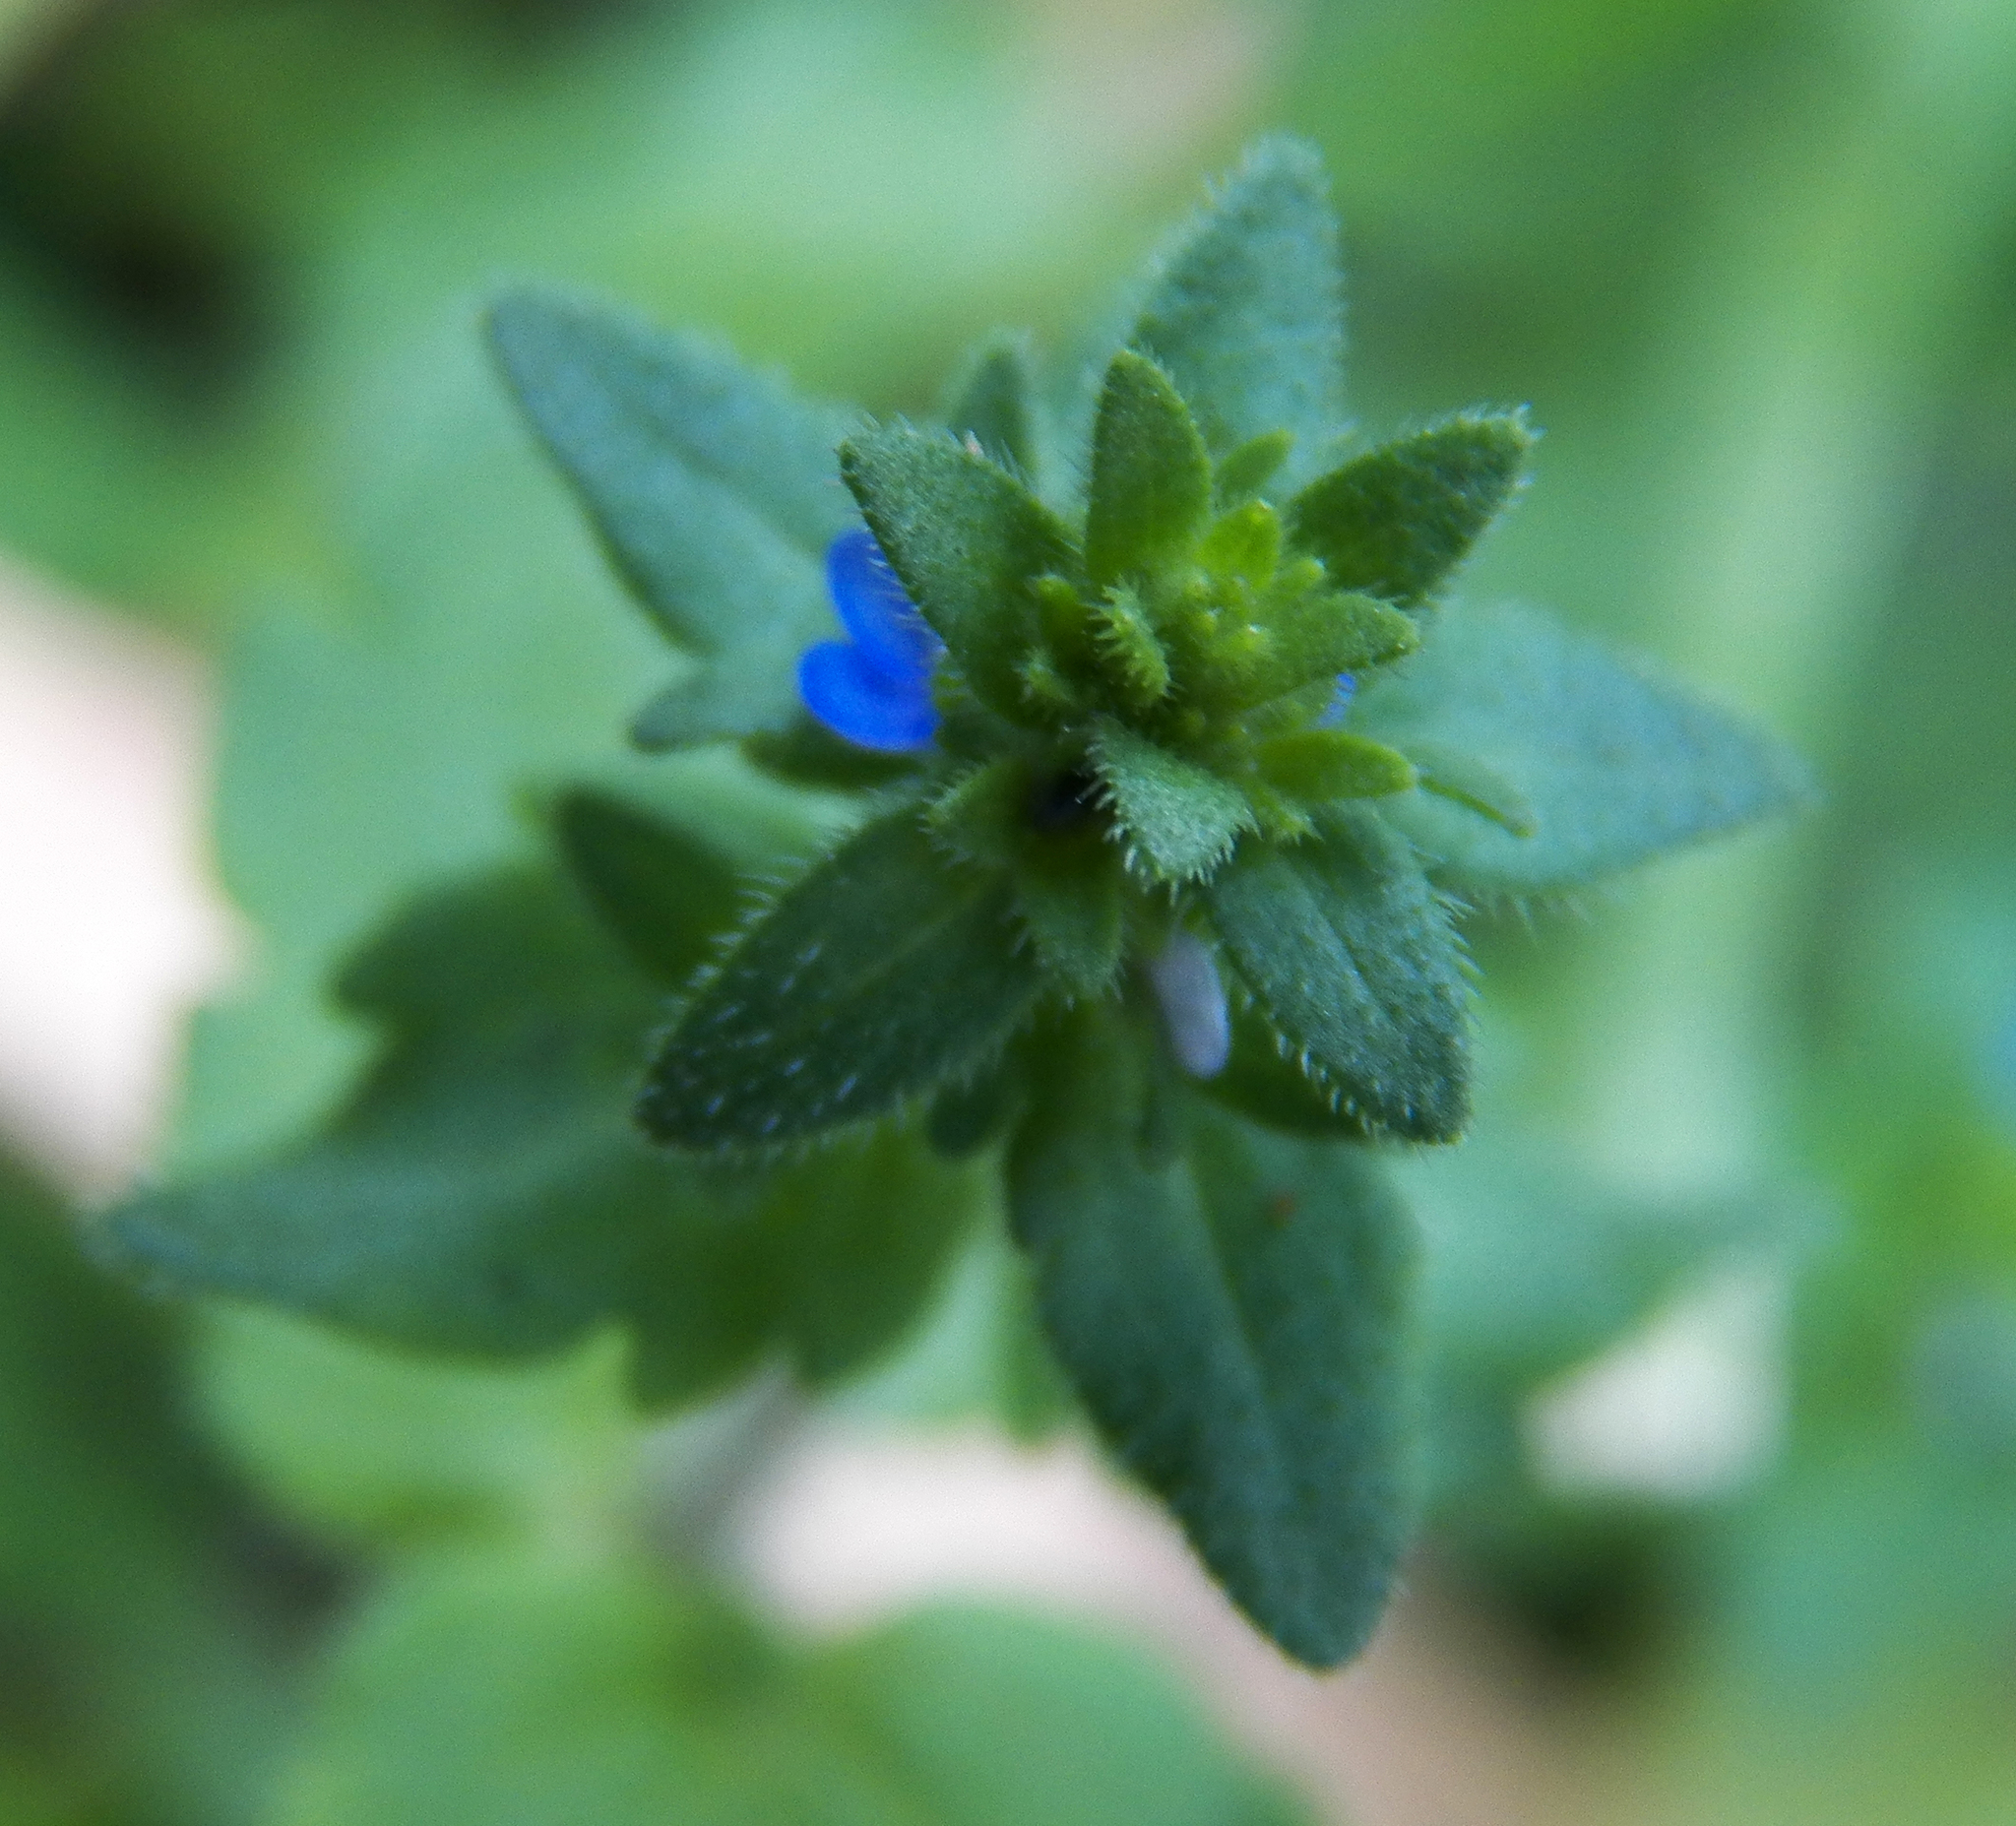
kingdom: Plantae
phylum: Tracheophyta
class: Magnoliopsida
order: Lamiales
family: Plantaginaceae
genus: Veronica
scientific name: Veronica arvensis
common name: Corn speedwell
